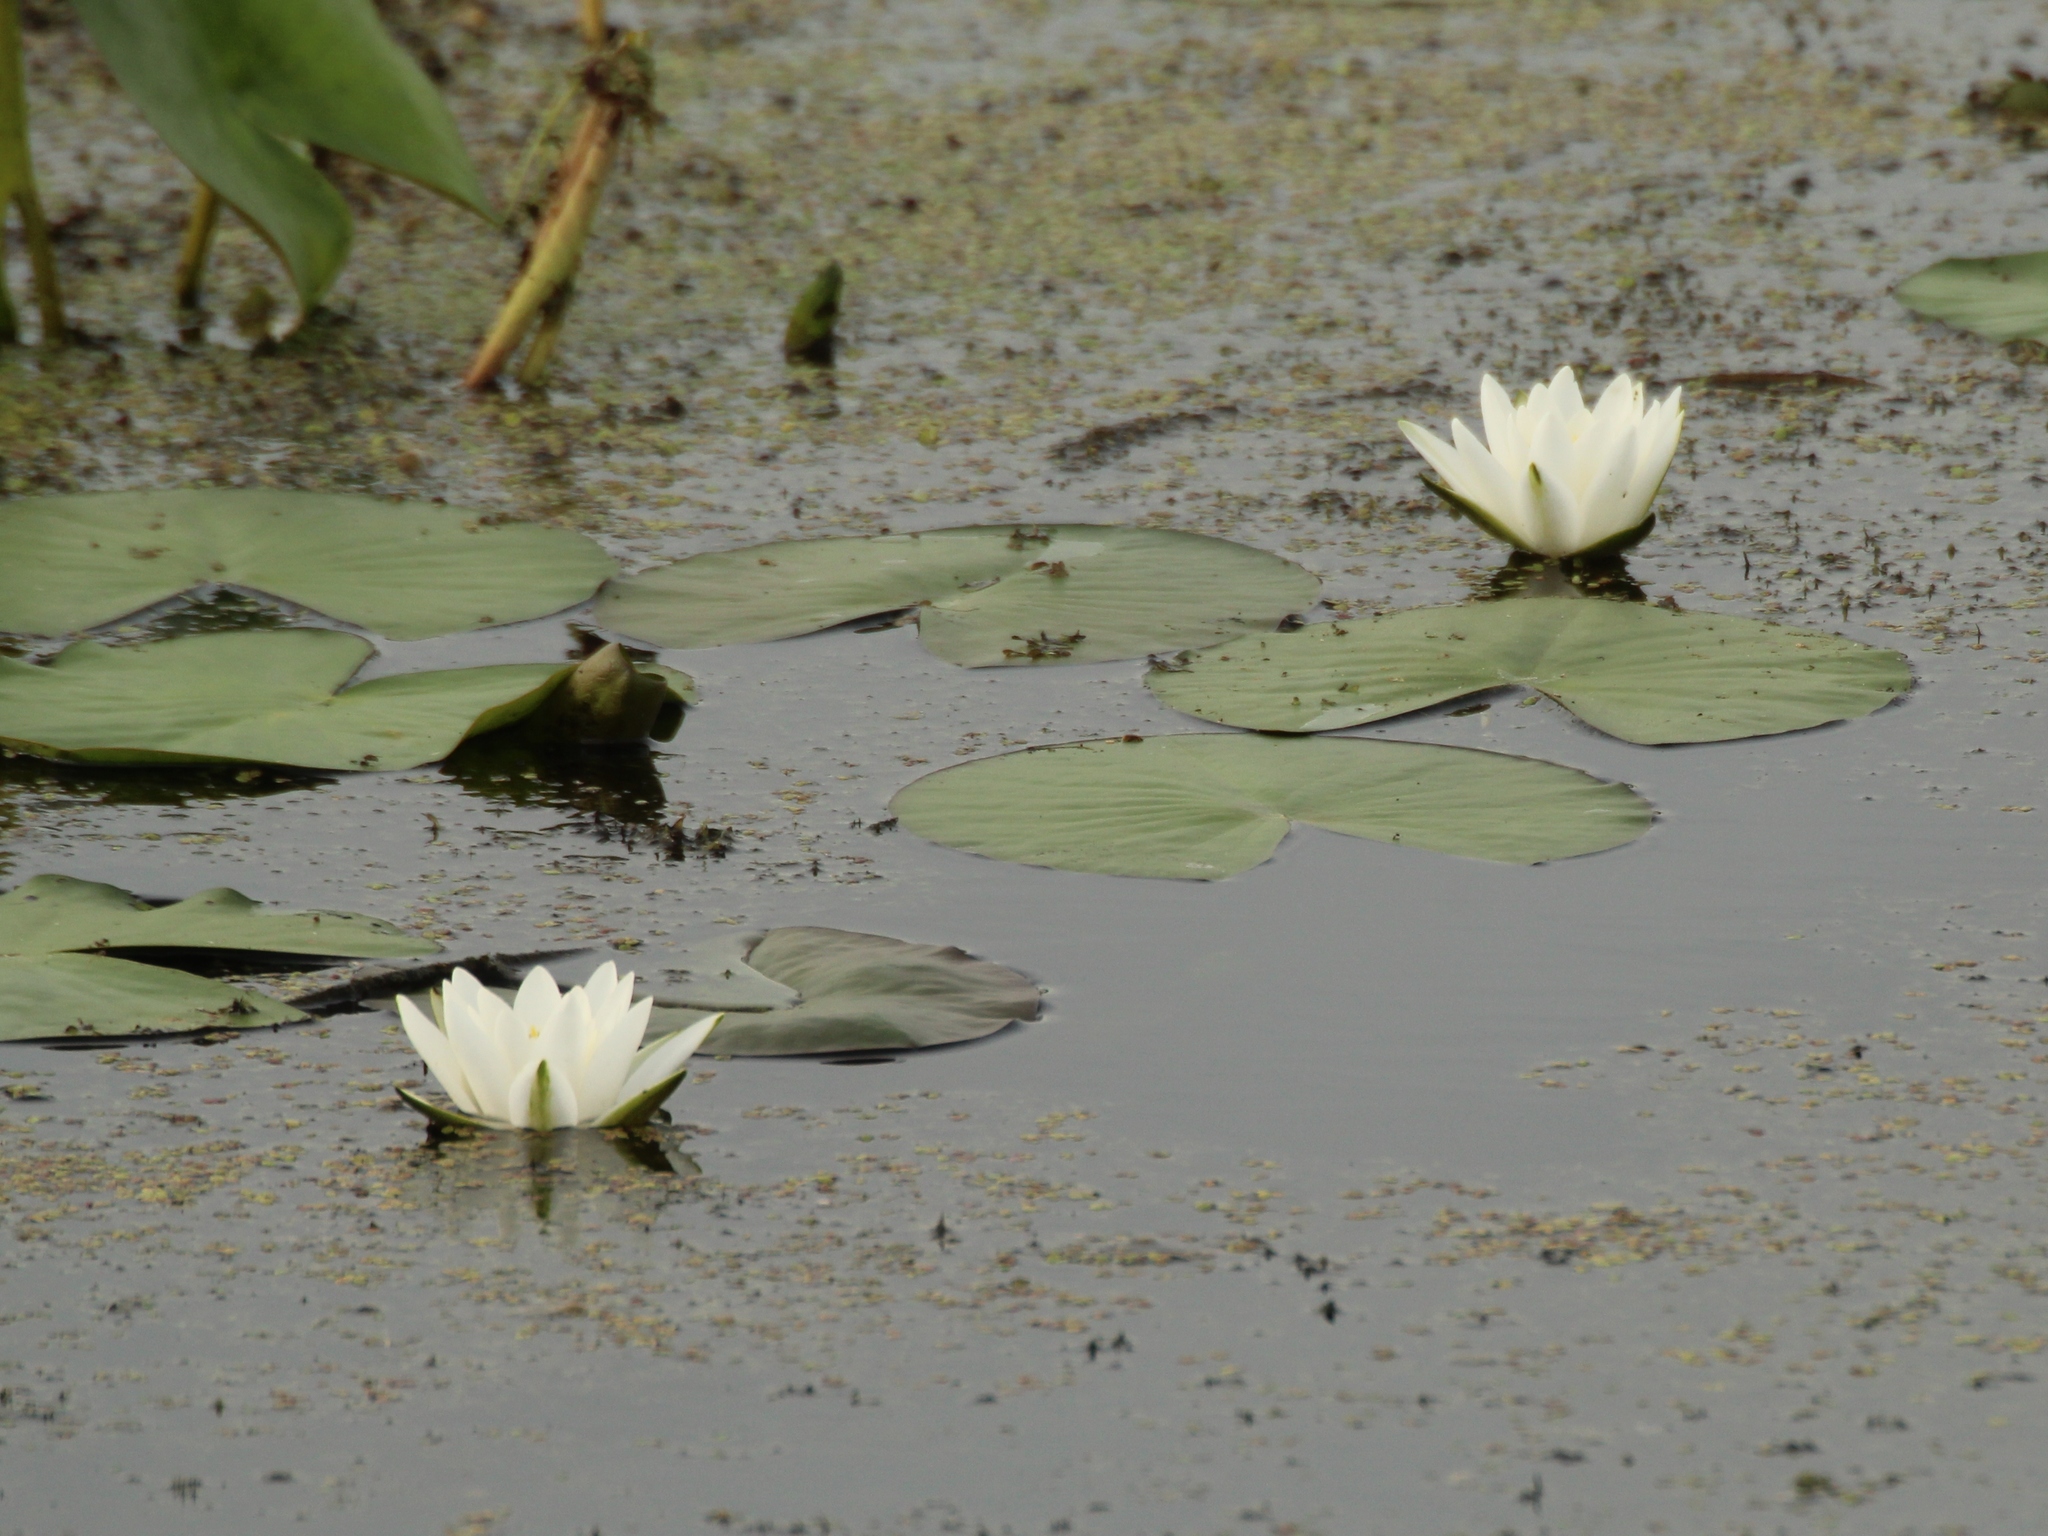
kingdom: Plantae
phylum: Tracheophyta
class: Magnoliopsida
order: Nymphaeales
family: Nymphaeaceae
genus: Nymphaea
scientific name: Nymphaea candida
